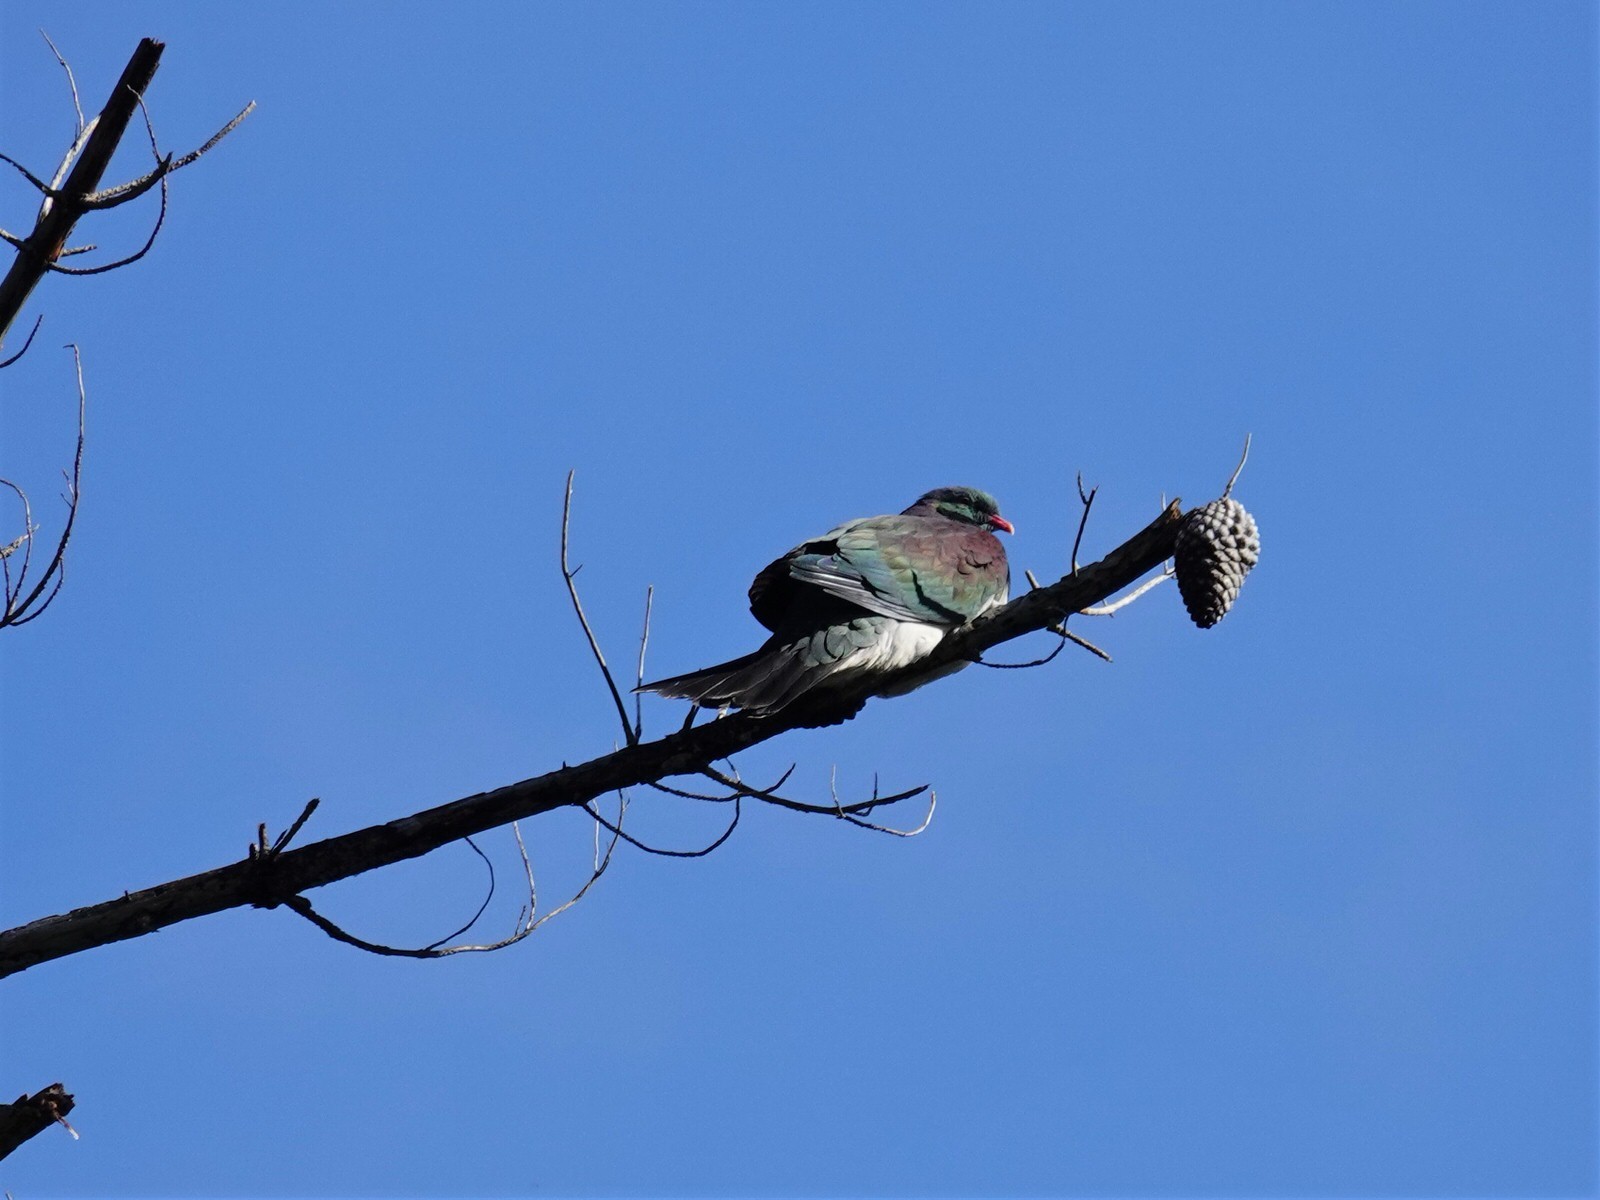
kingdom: Animalia
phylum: Chordata
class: Aves
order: Columbiformes
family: Columbidae
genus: Hemiphaga
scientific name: Hemiphaga novaeseelandiae
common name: New zealand pigeon
